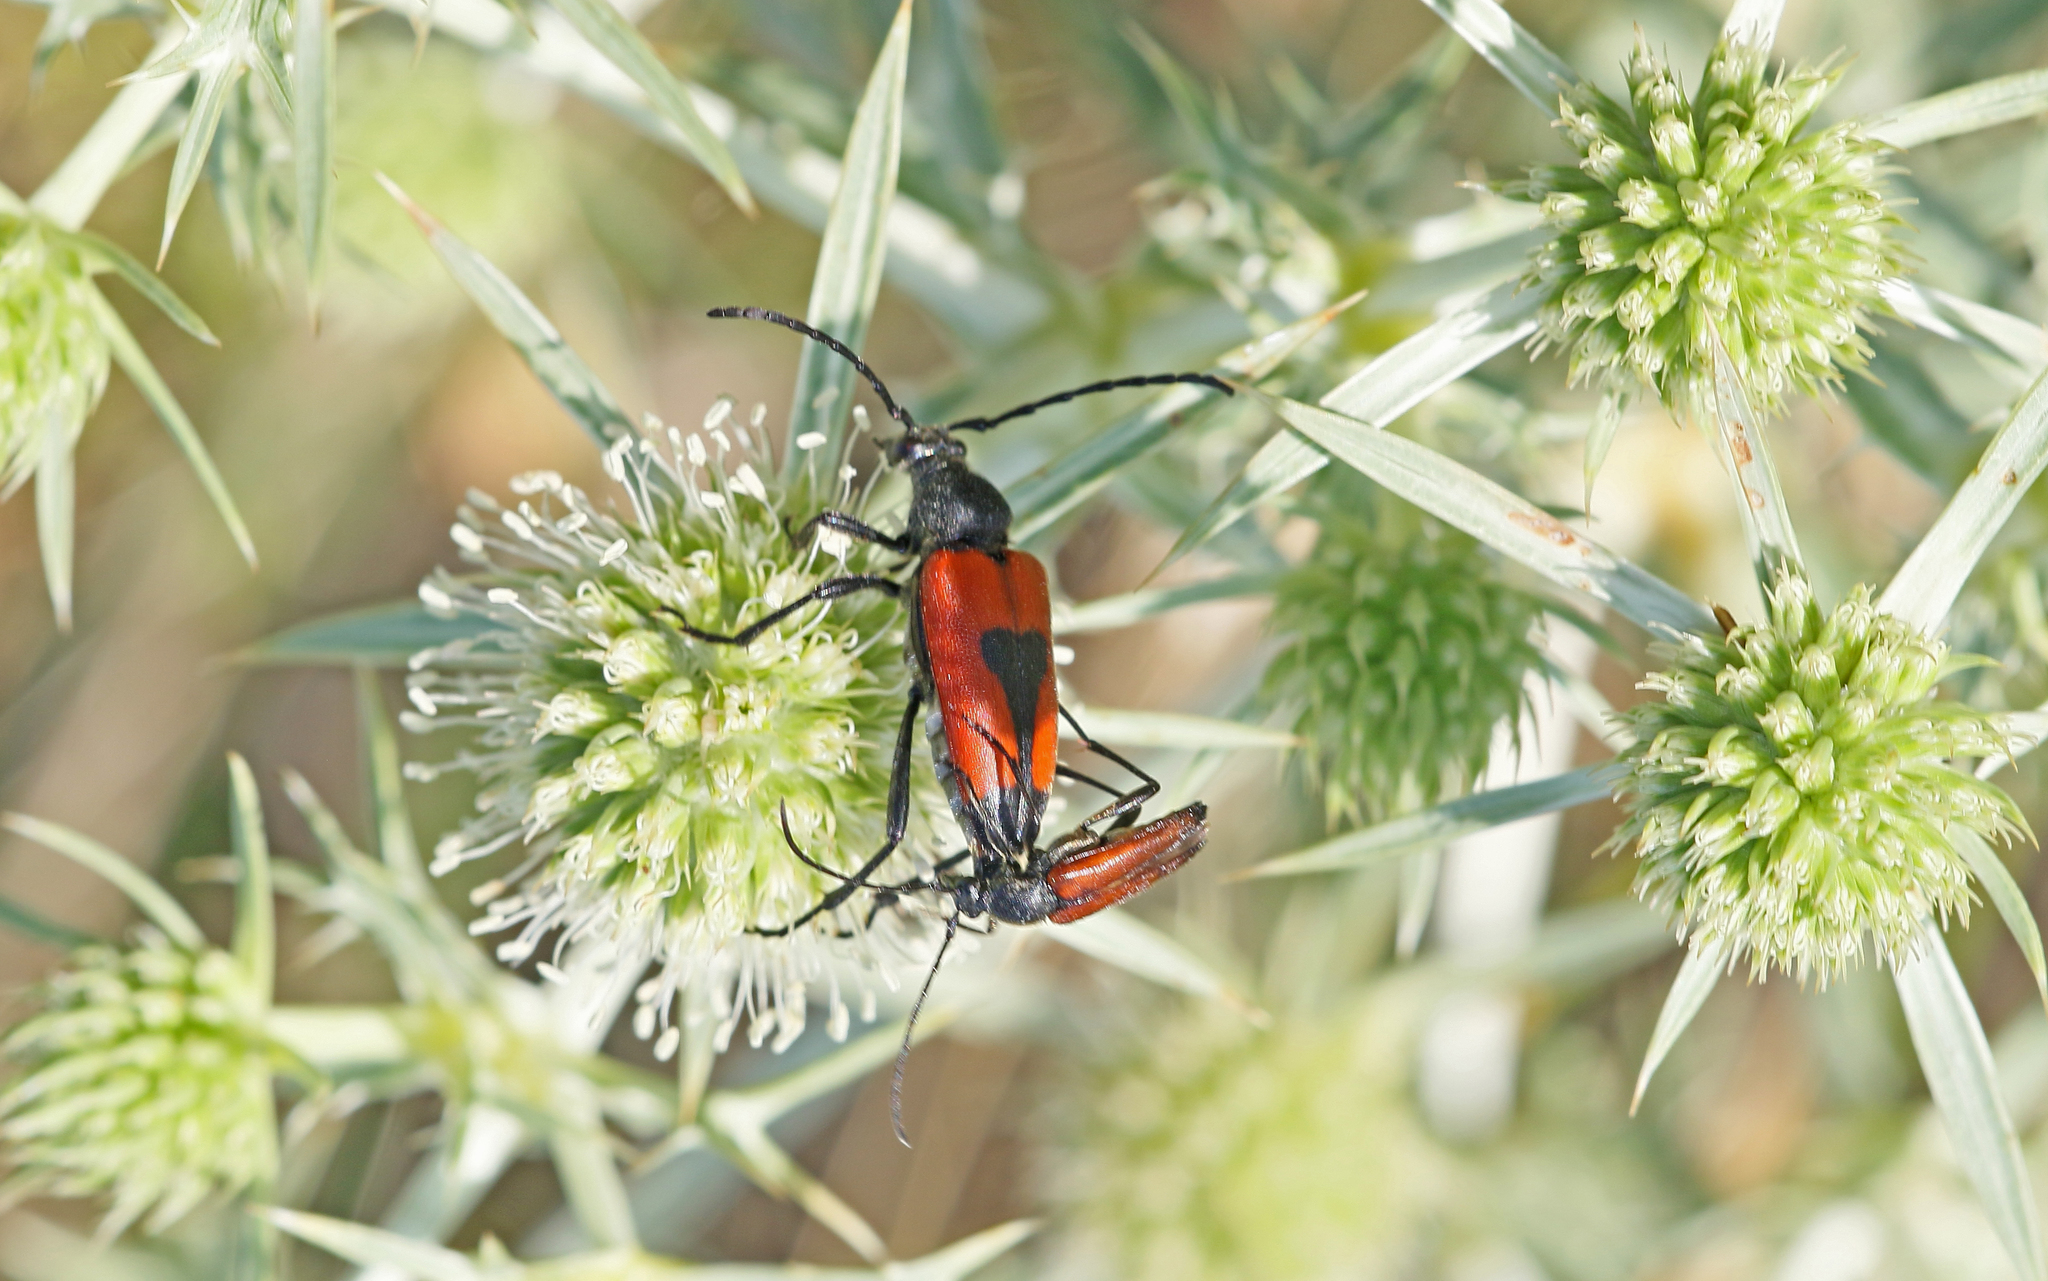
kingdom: Animalia
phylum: Arthropoda
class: Insecta
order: Coleoptera
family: Cerambycidae
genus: Stictoleptura
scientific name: Stictoleptura cordigera
